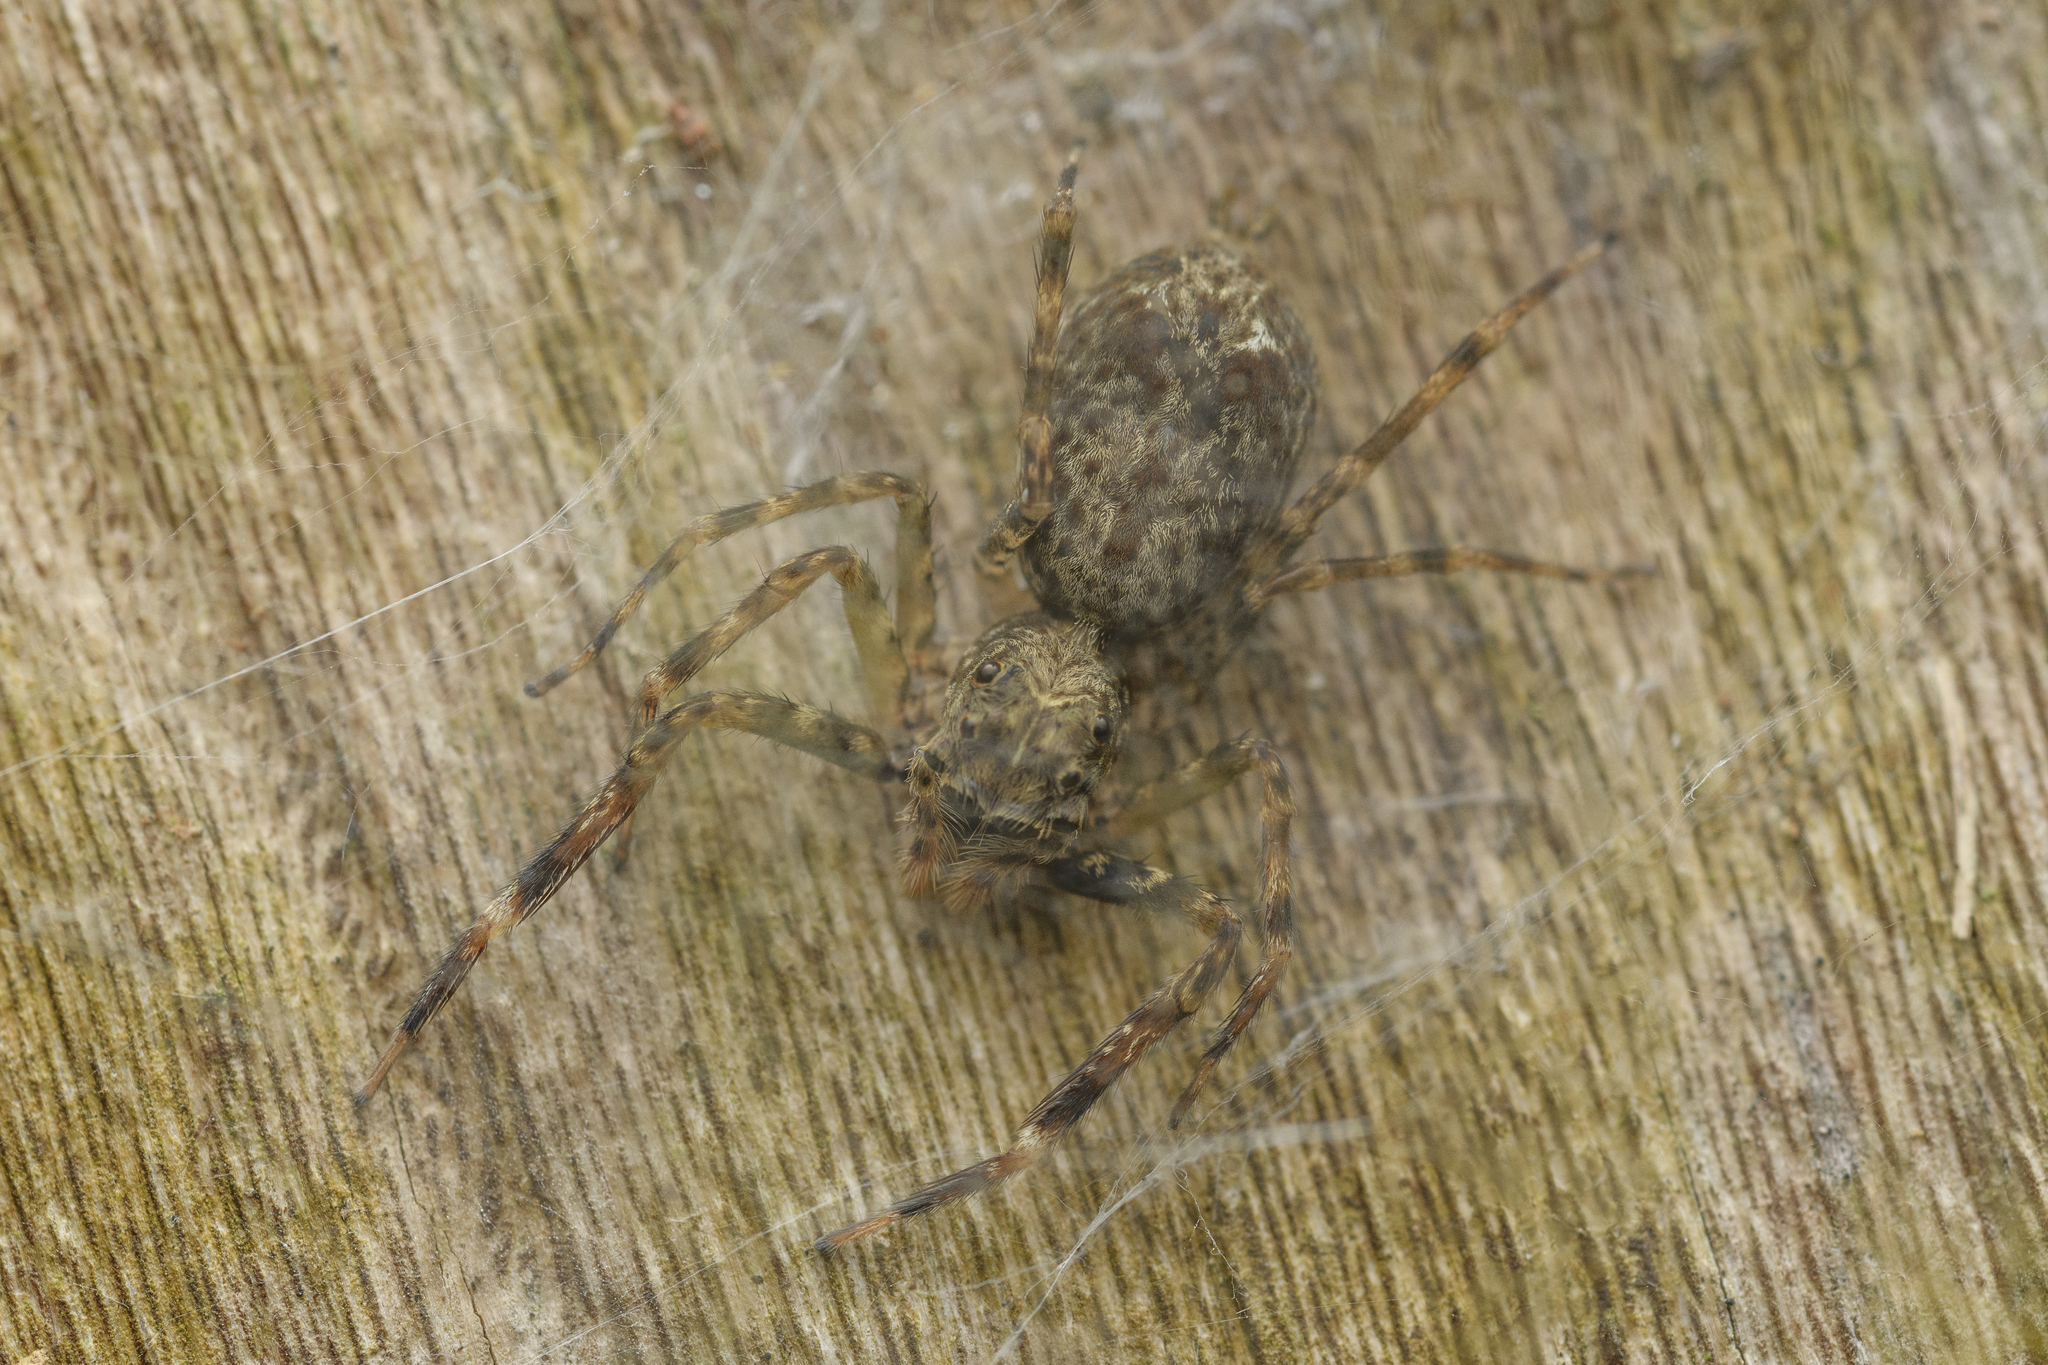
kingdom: Animalia
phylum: Arthropoda
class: Arachnida
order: Araneae
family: Salticidae
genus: Spartaeus
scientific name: Spartaeus zhangi
